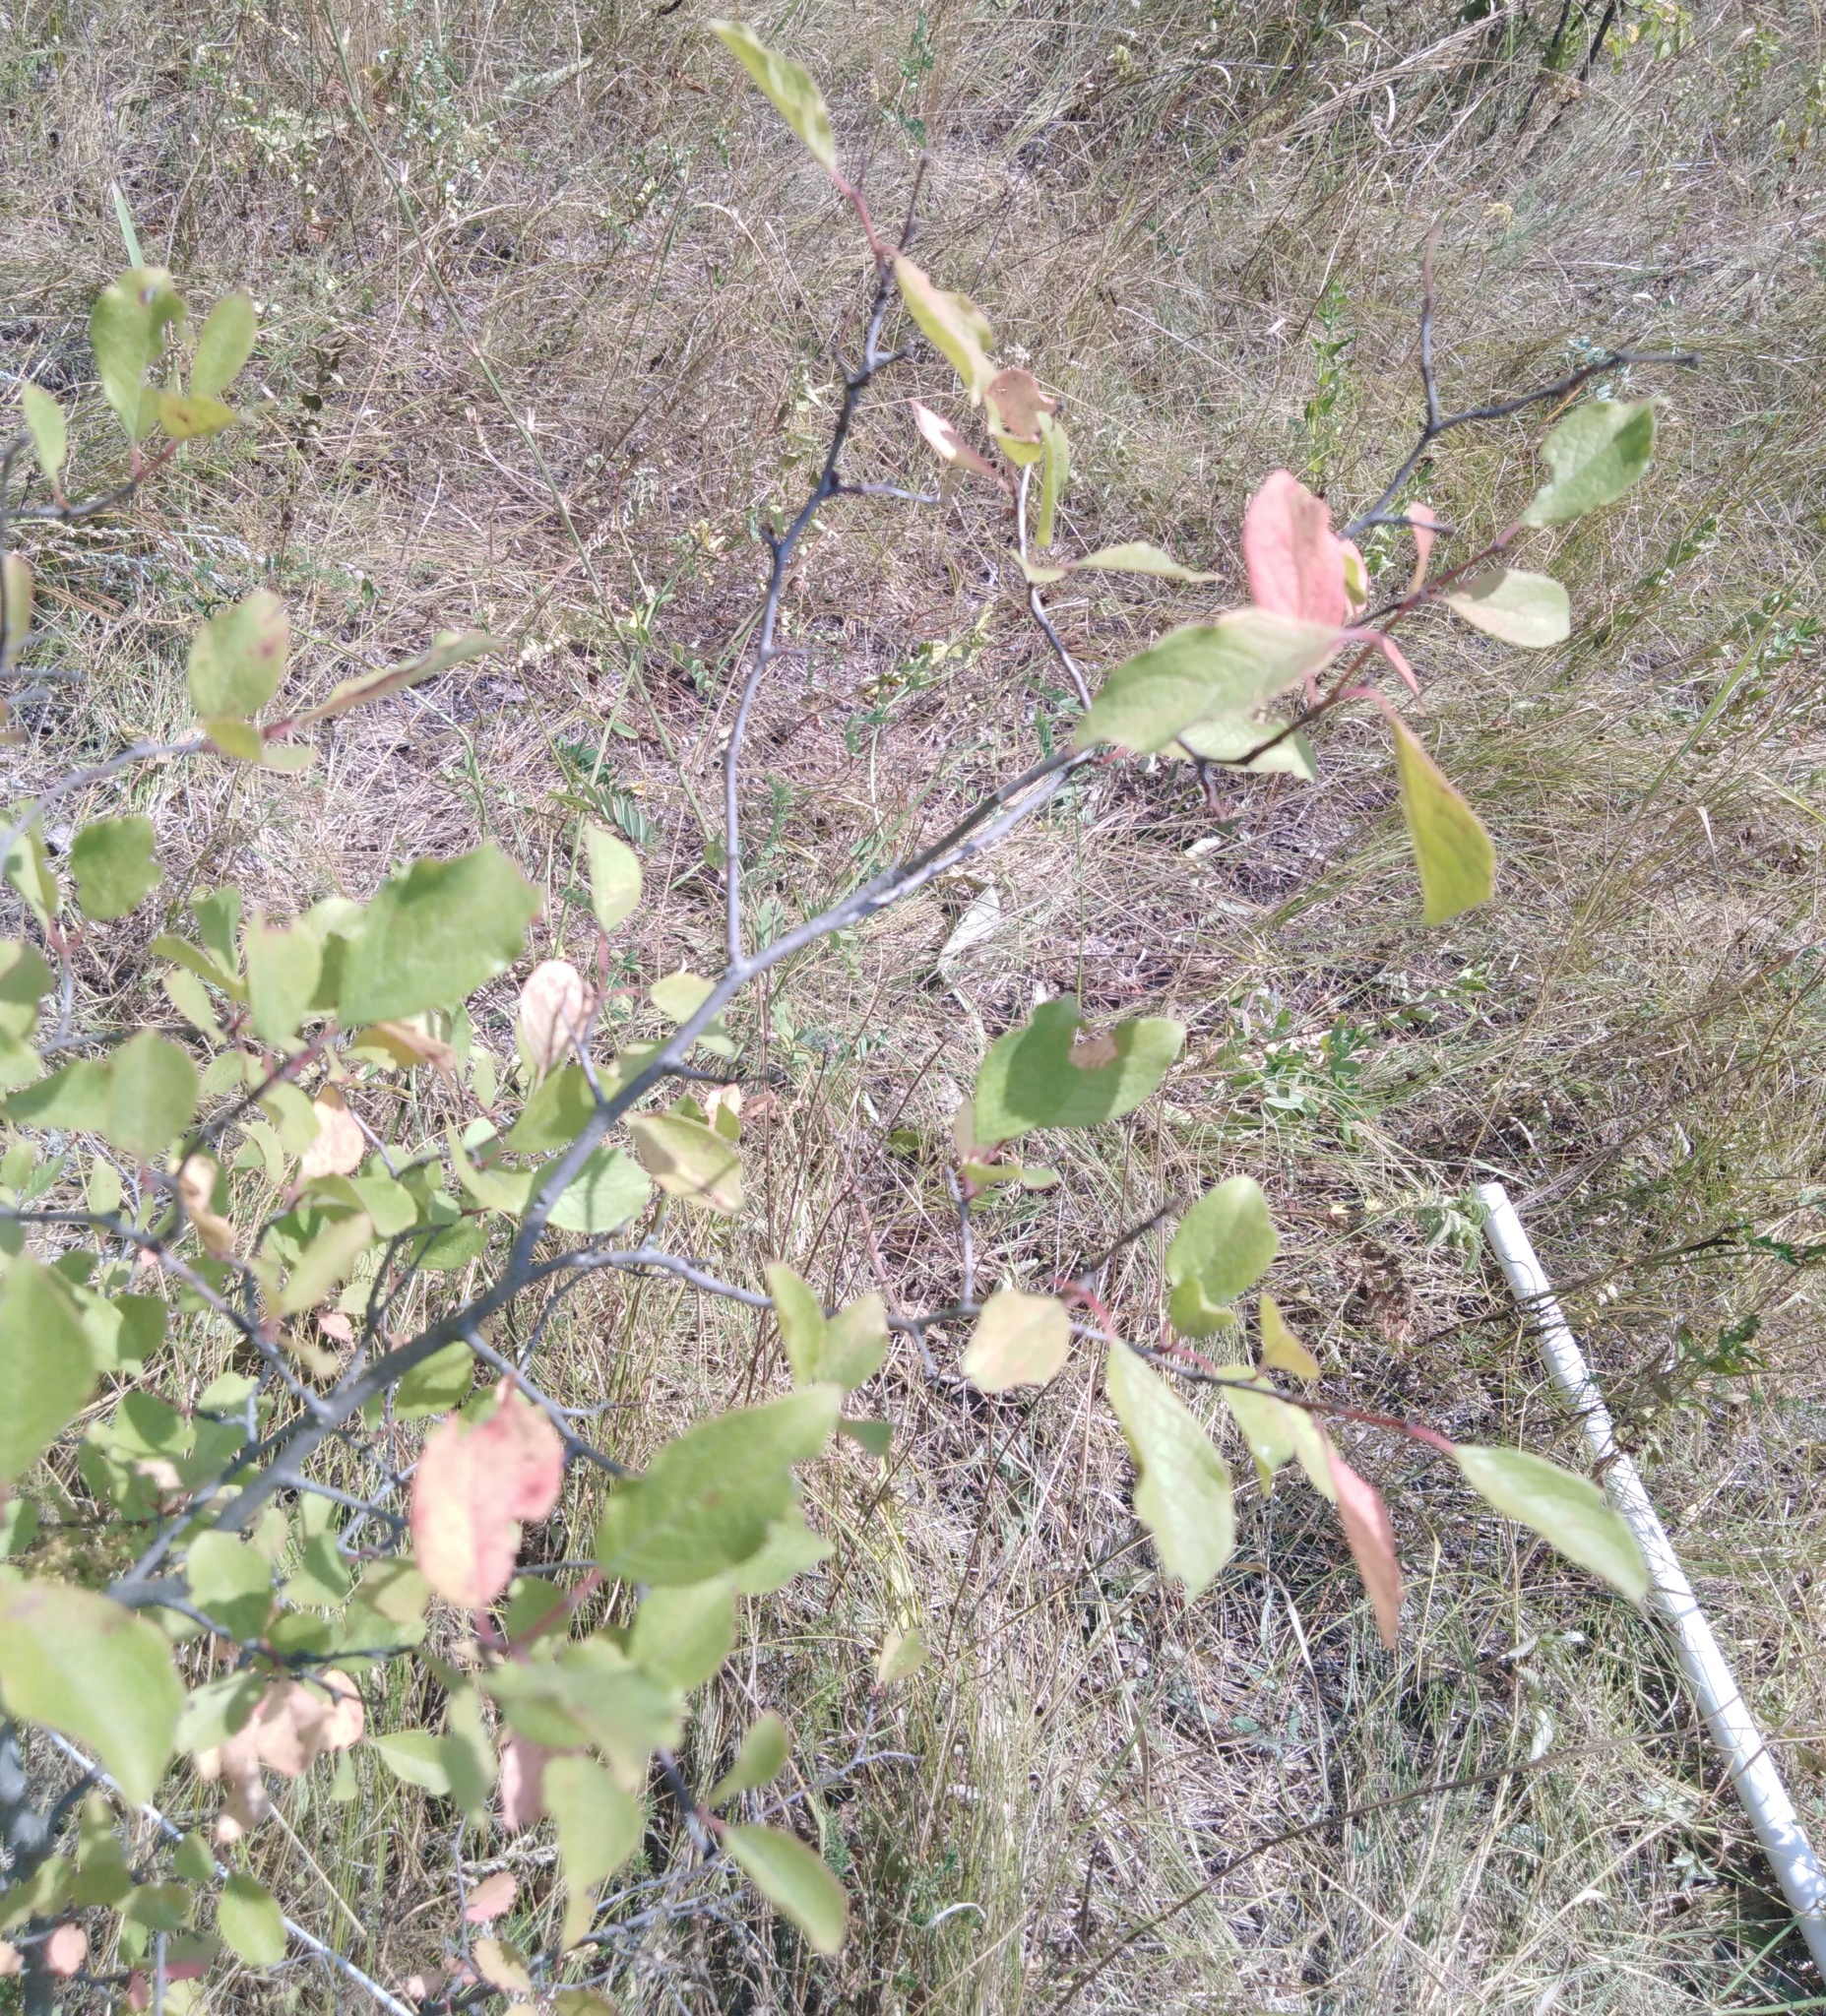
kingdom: Plantae
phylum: Tracheophyta
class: Magnoliopsida
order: Rosales
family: Rosaceae
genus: Prunus
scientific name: Prunus spinosa
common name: Blackthorn
